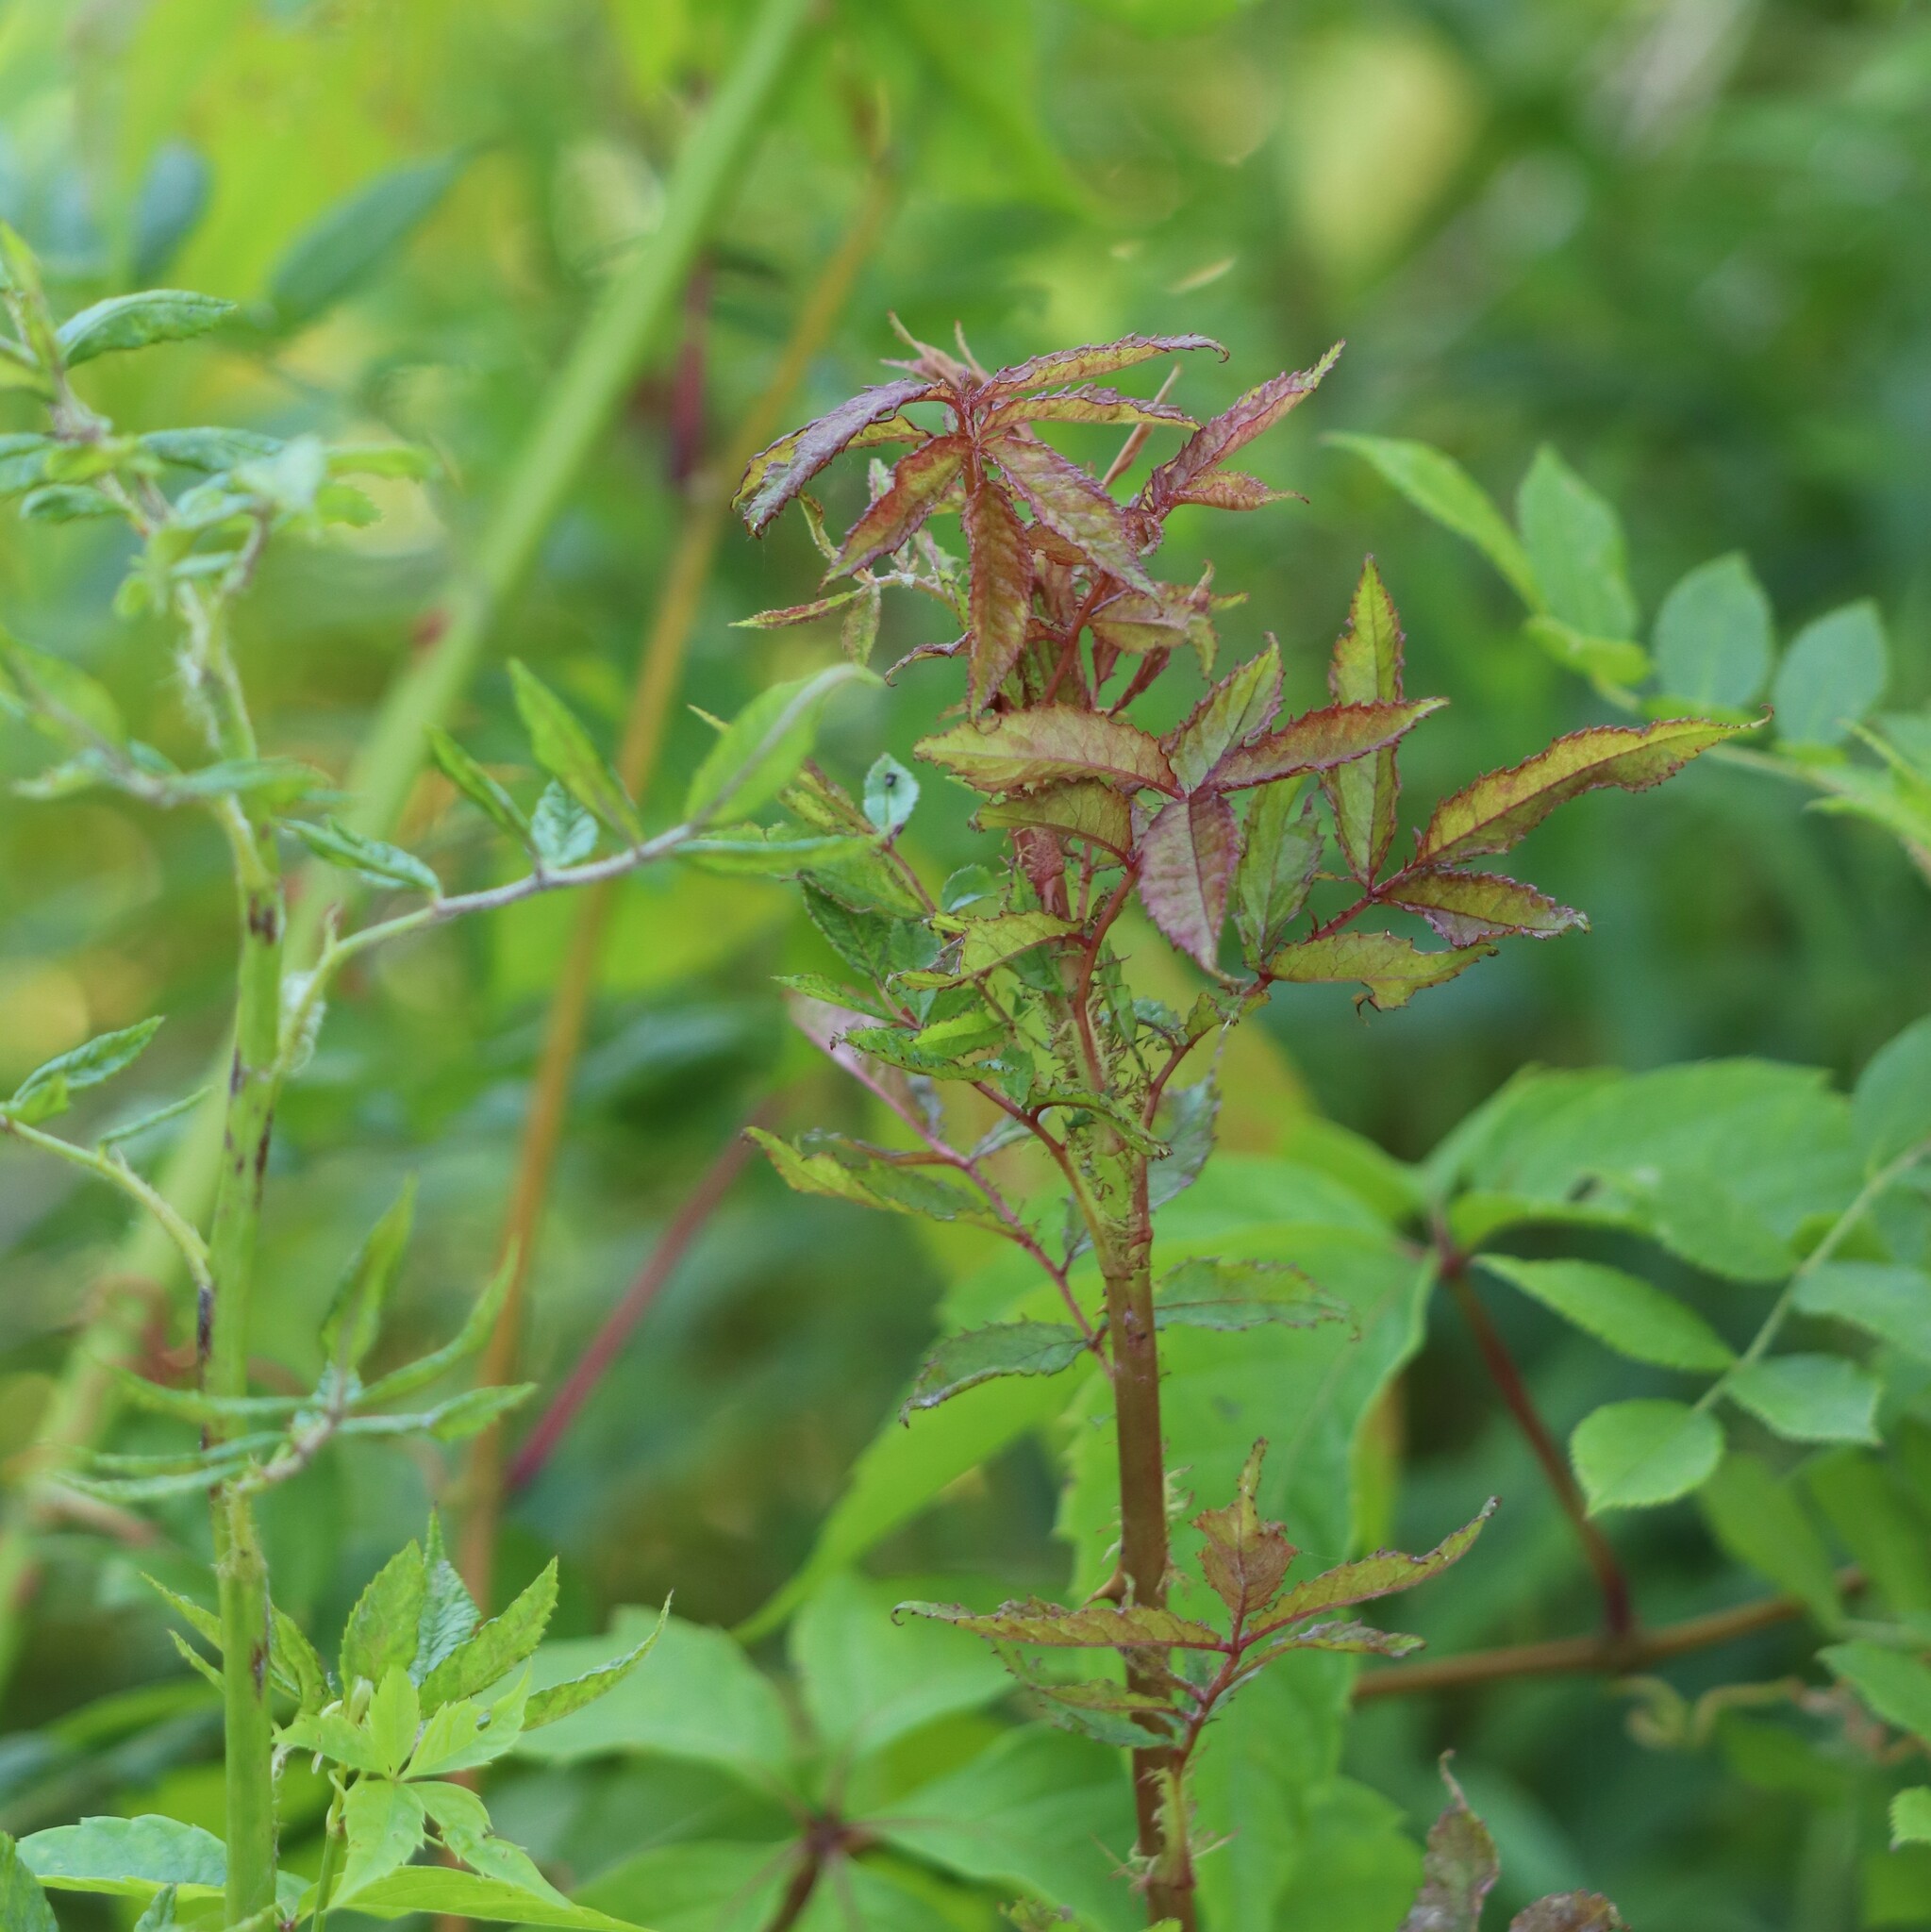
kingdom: Viruses
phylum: Negarnaviricota
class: Ellioviricetes
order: Bunyavirales
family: Fimoviridae
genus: Emaravirus
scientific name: Emaravirus rosae
